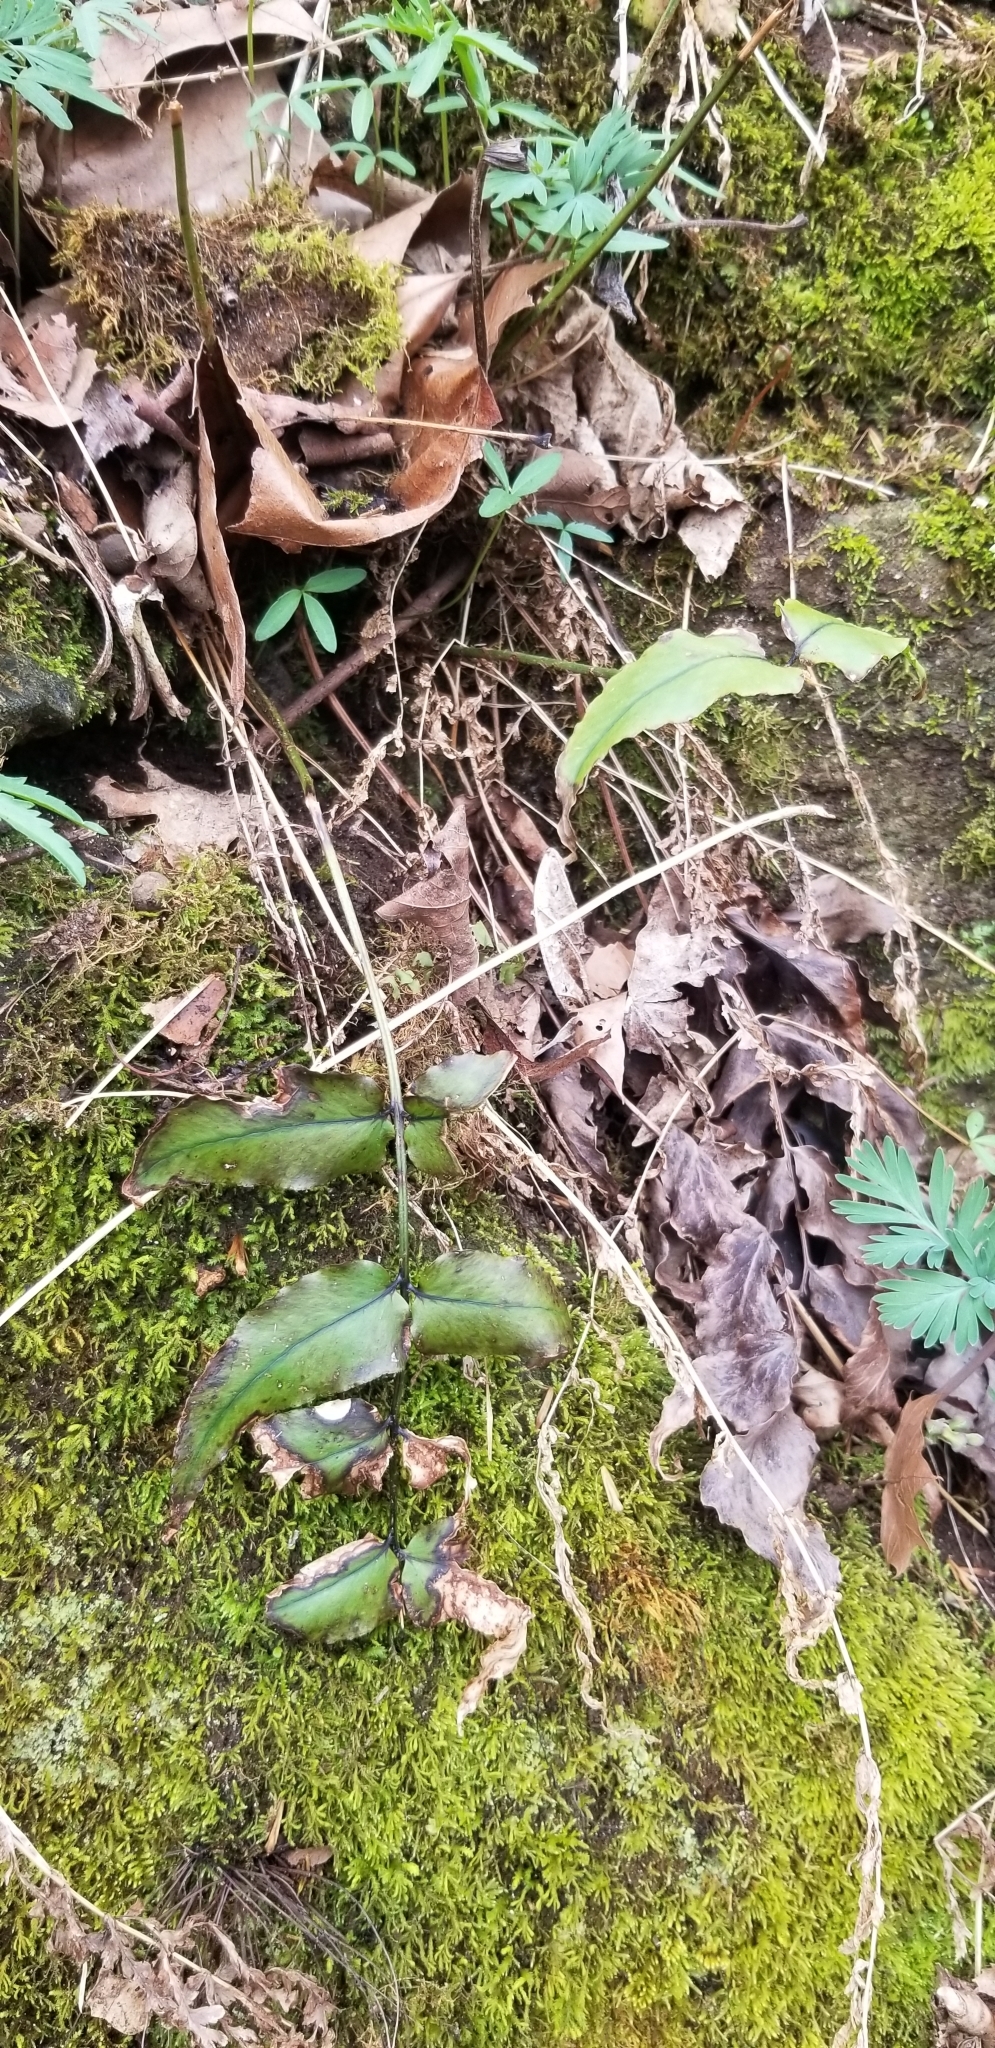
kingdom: Plantae
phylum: Tracheophyta
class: Polypodiopsida
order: Polypodiales
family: Dryopteridaceae
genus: Cyrtomium
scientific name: Cyrtomium fortunei
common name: Asian netvein hollyfern
